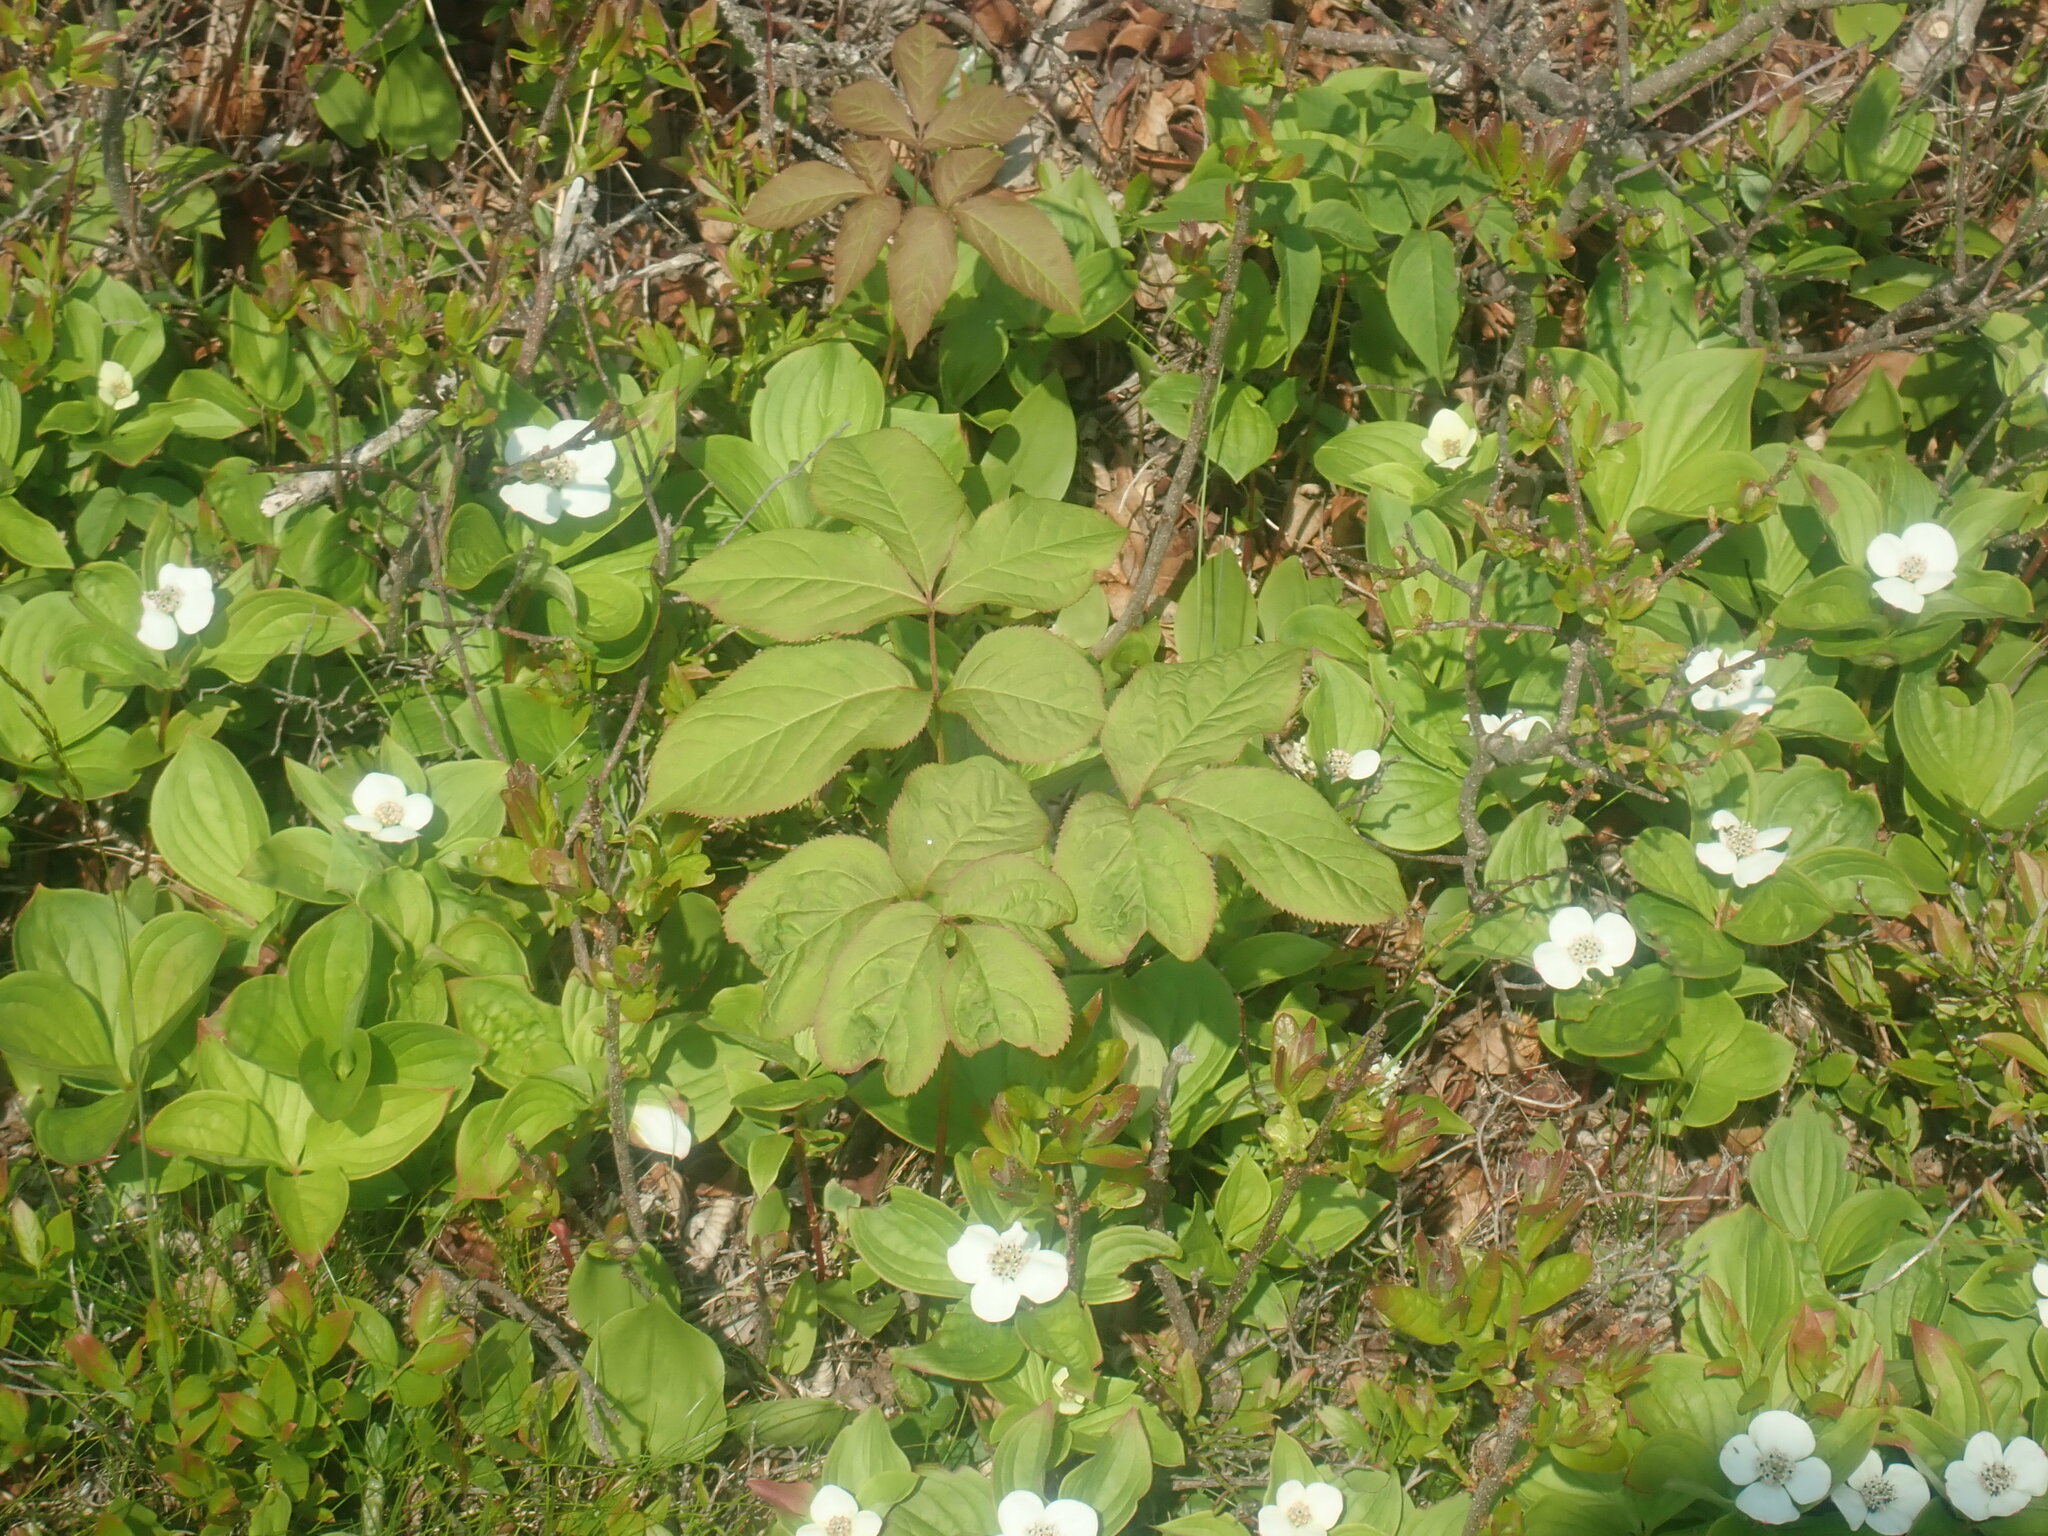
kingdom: Plantae
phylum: Tracheophyta
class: Magnoliopsida
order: Apiales
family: Araliaceae
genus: Aralia
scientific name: Aralia nudicaulis
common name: Wild sarsaparilla
